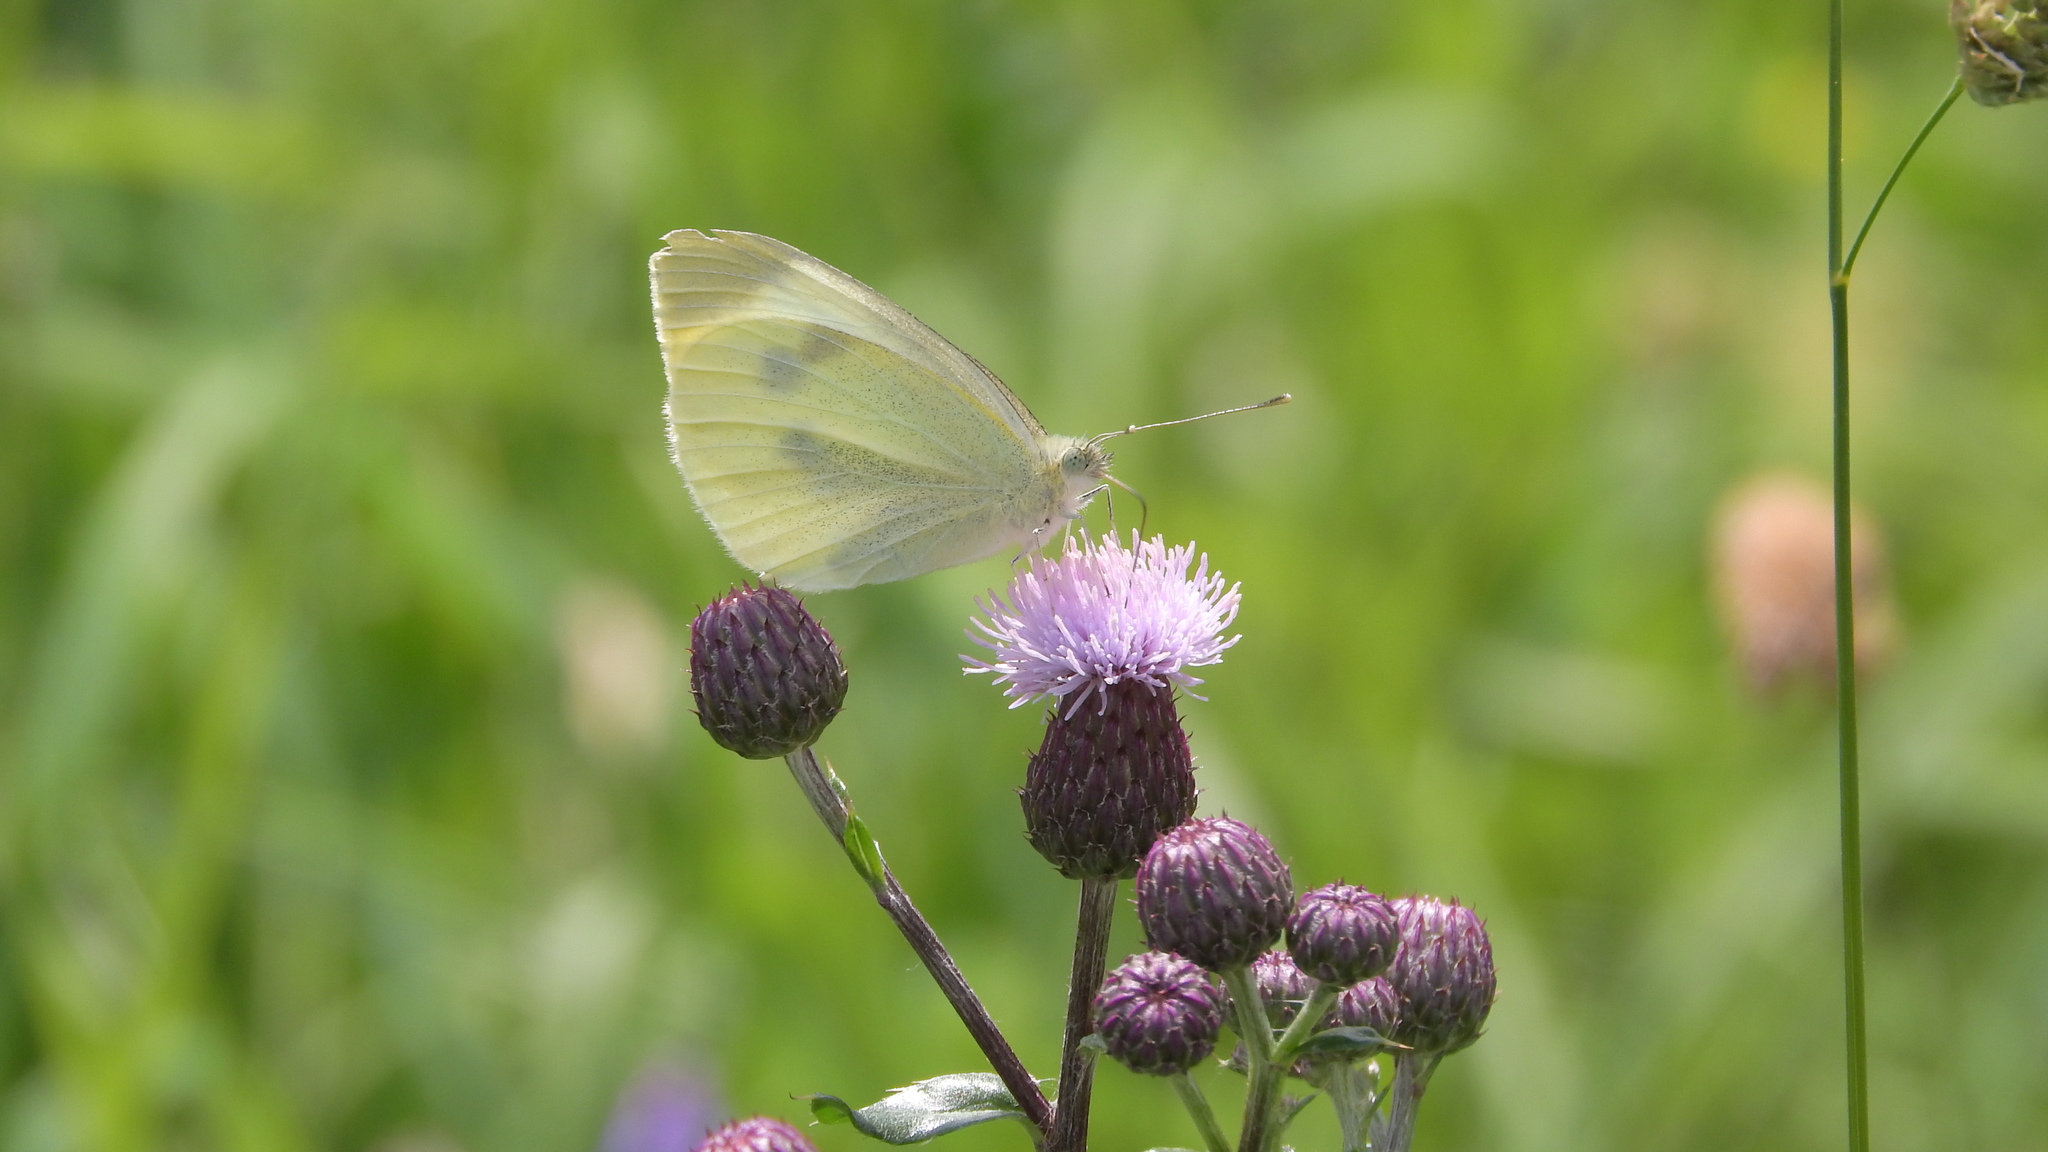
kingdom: Animalia
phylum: Arthropoda
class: Insecta
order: Lepidoptera
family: Pieridae
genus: Pieris
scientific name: Pieris rapae
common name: Small white
